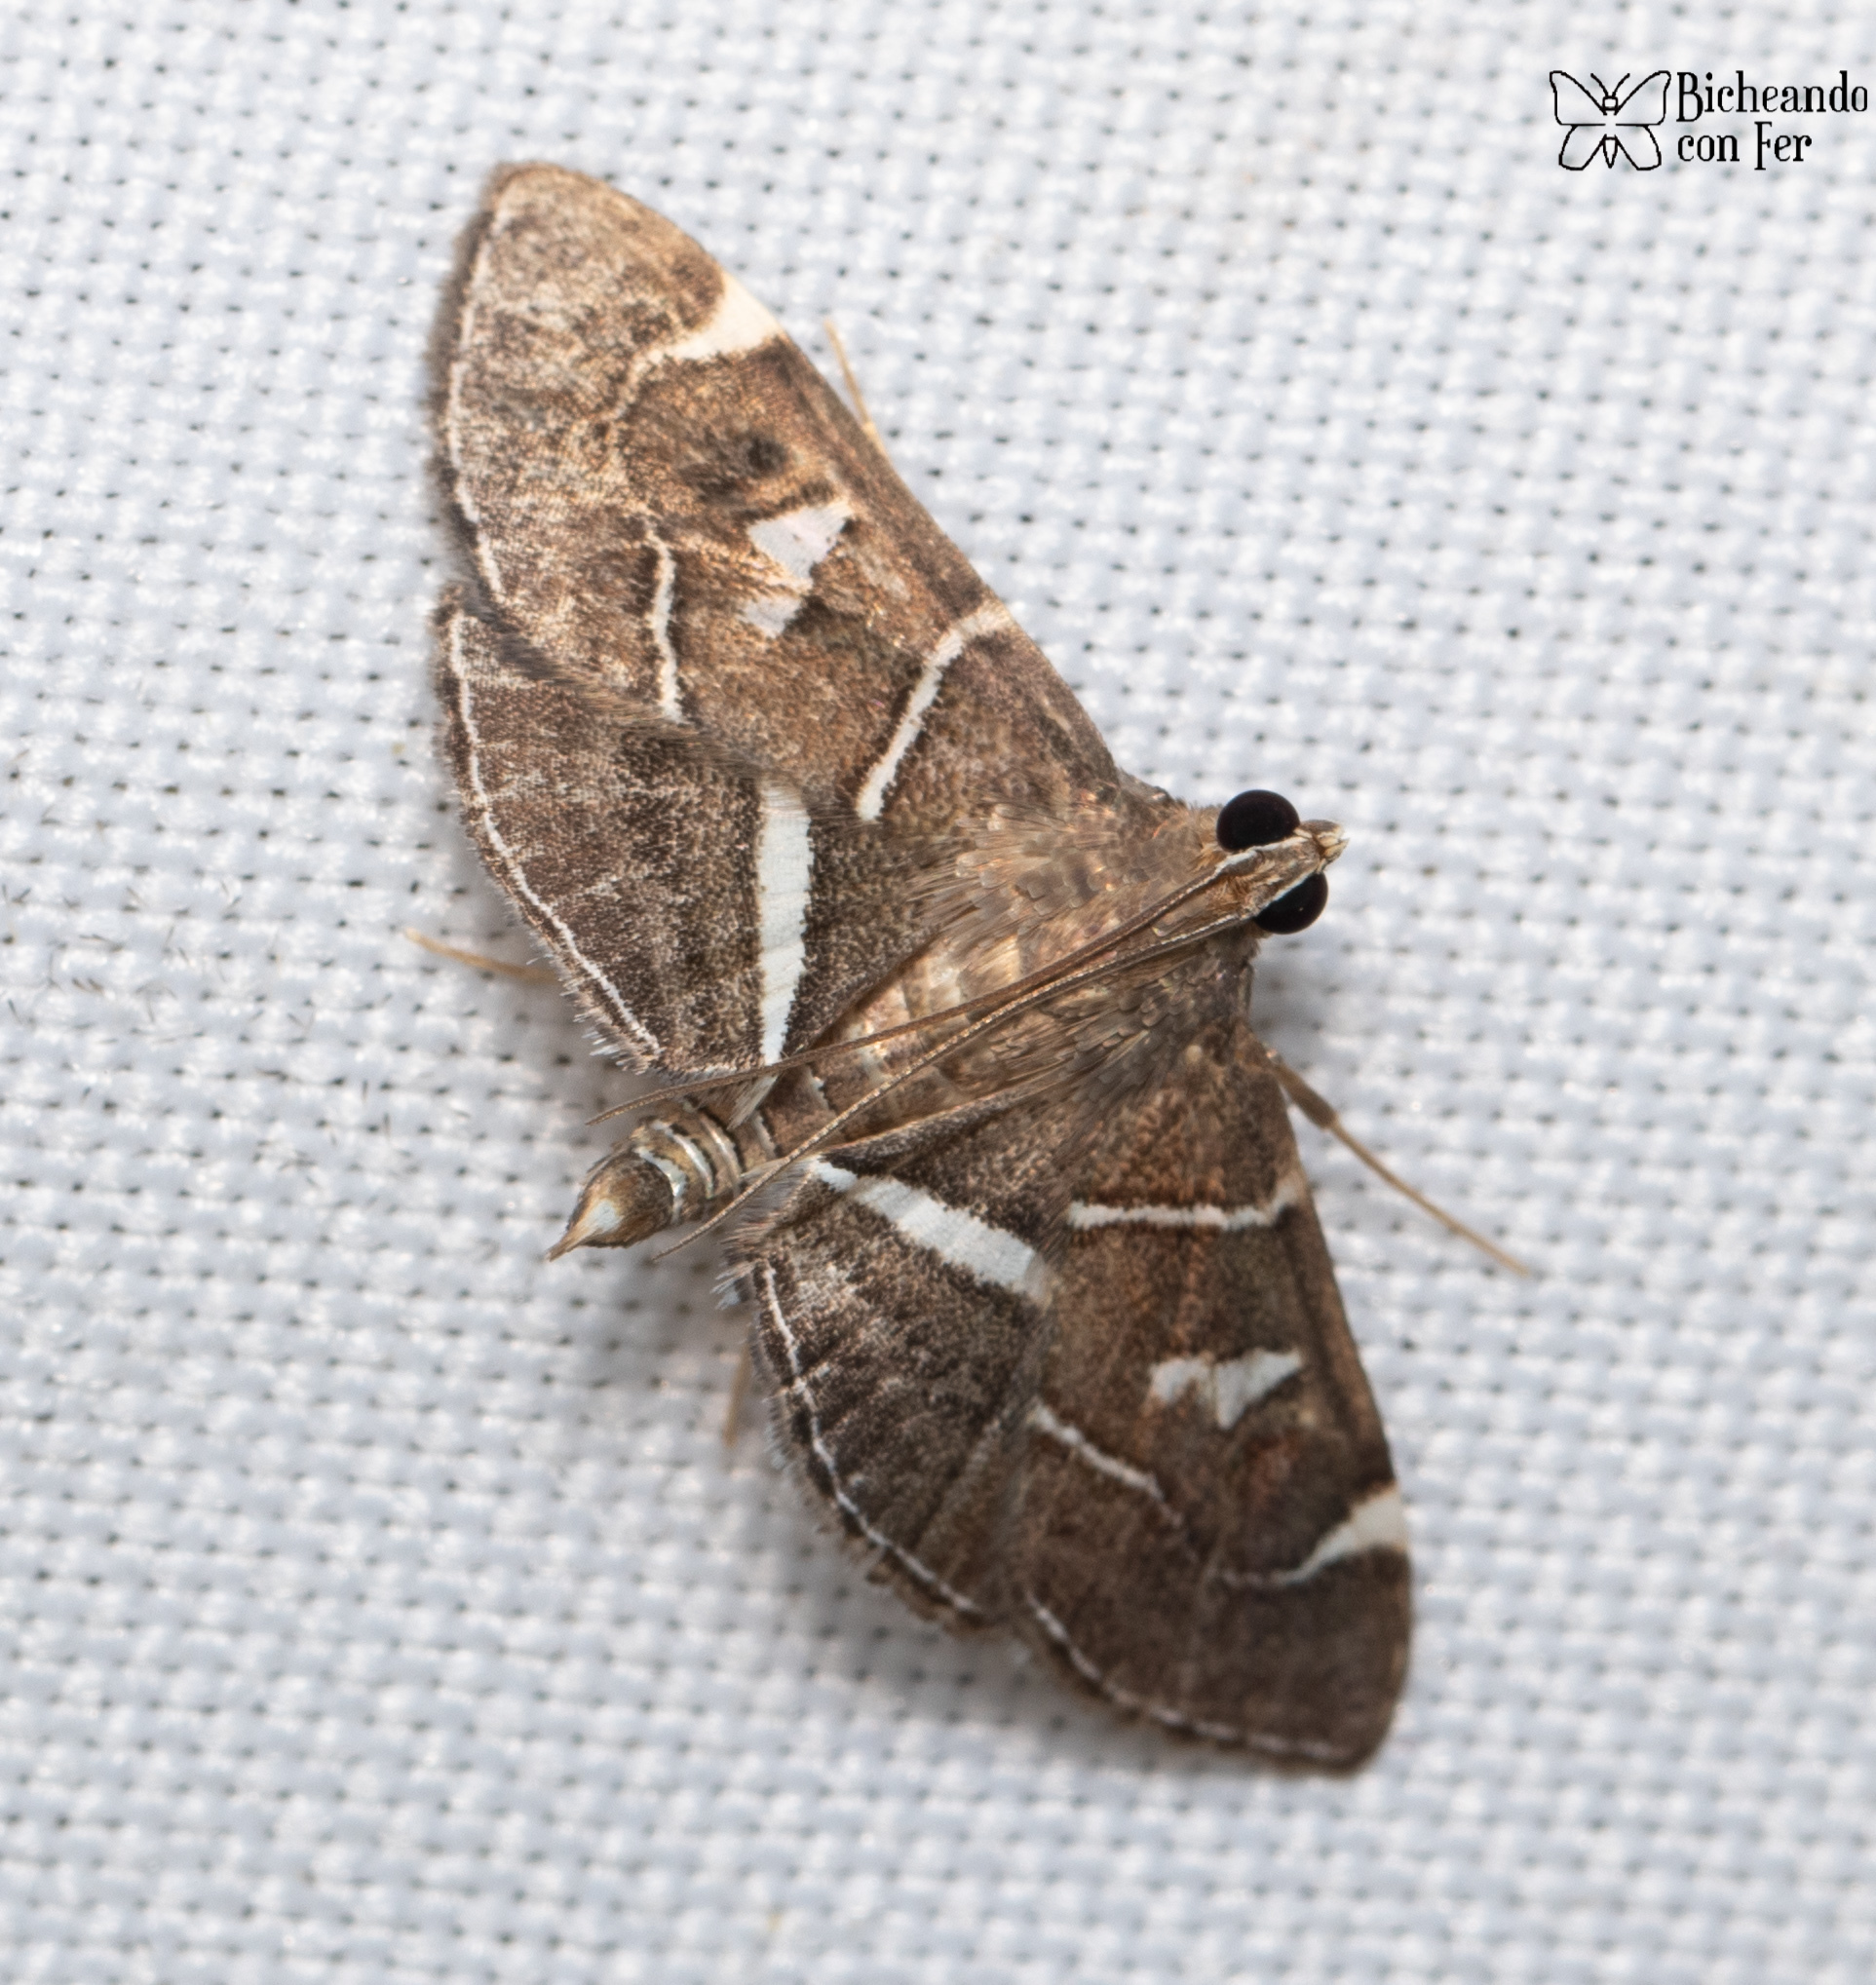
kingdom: Animalia
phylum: Arthropoda
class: Insecta
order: Lepidoptera
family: Crambidae
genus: Lamprosema
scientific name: Lamprosema victoriae
